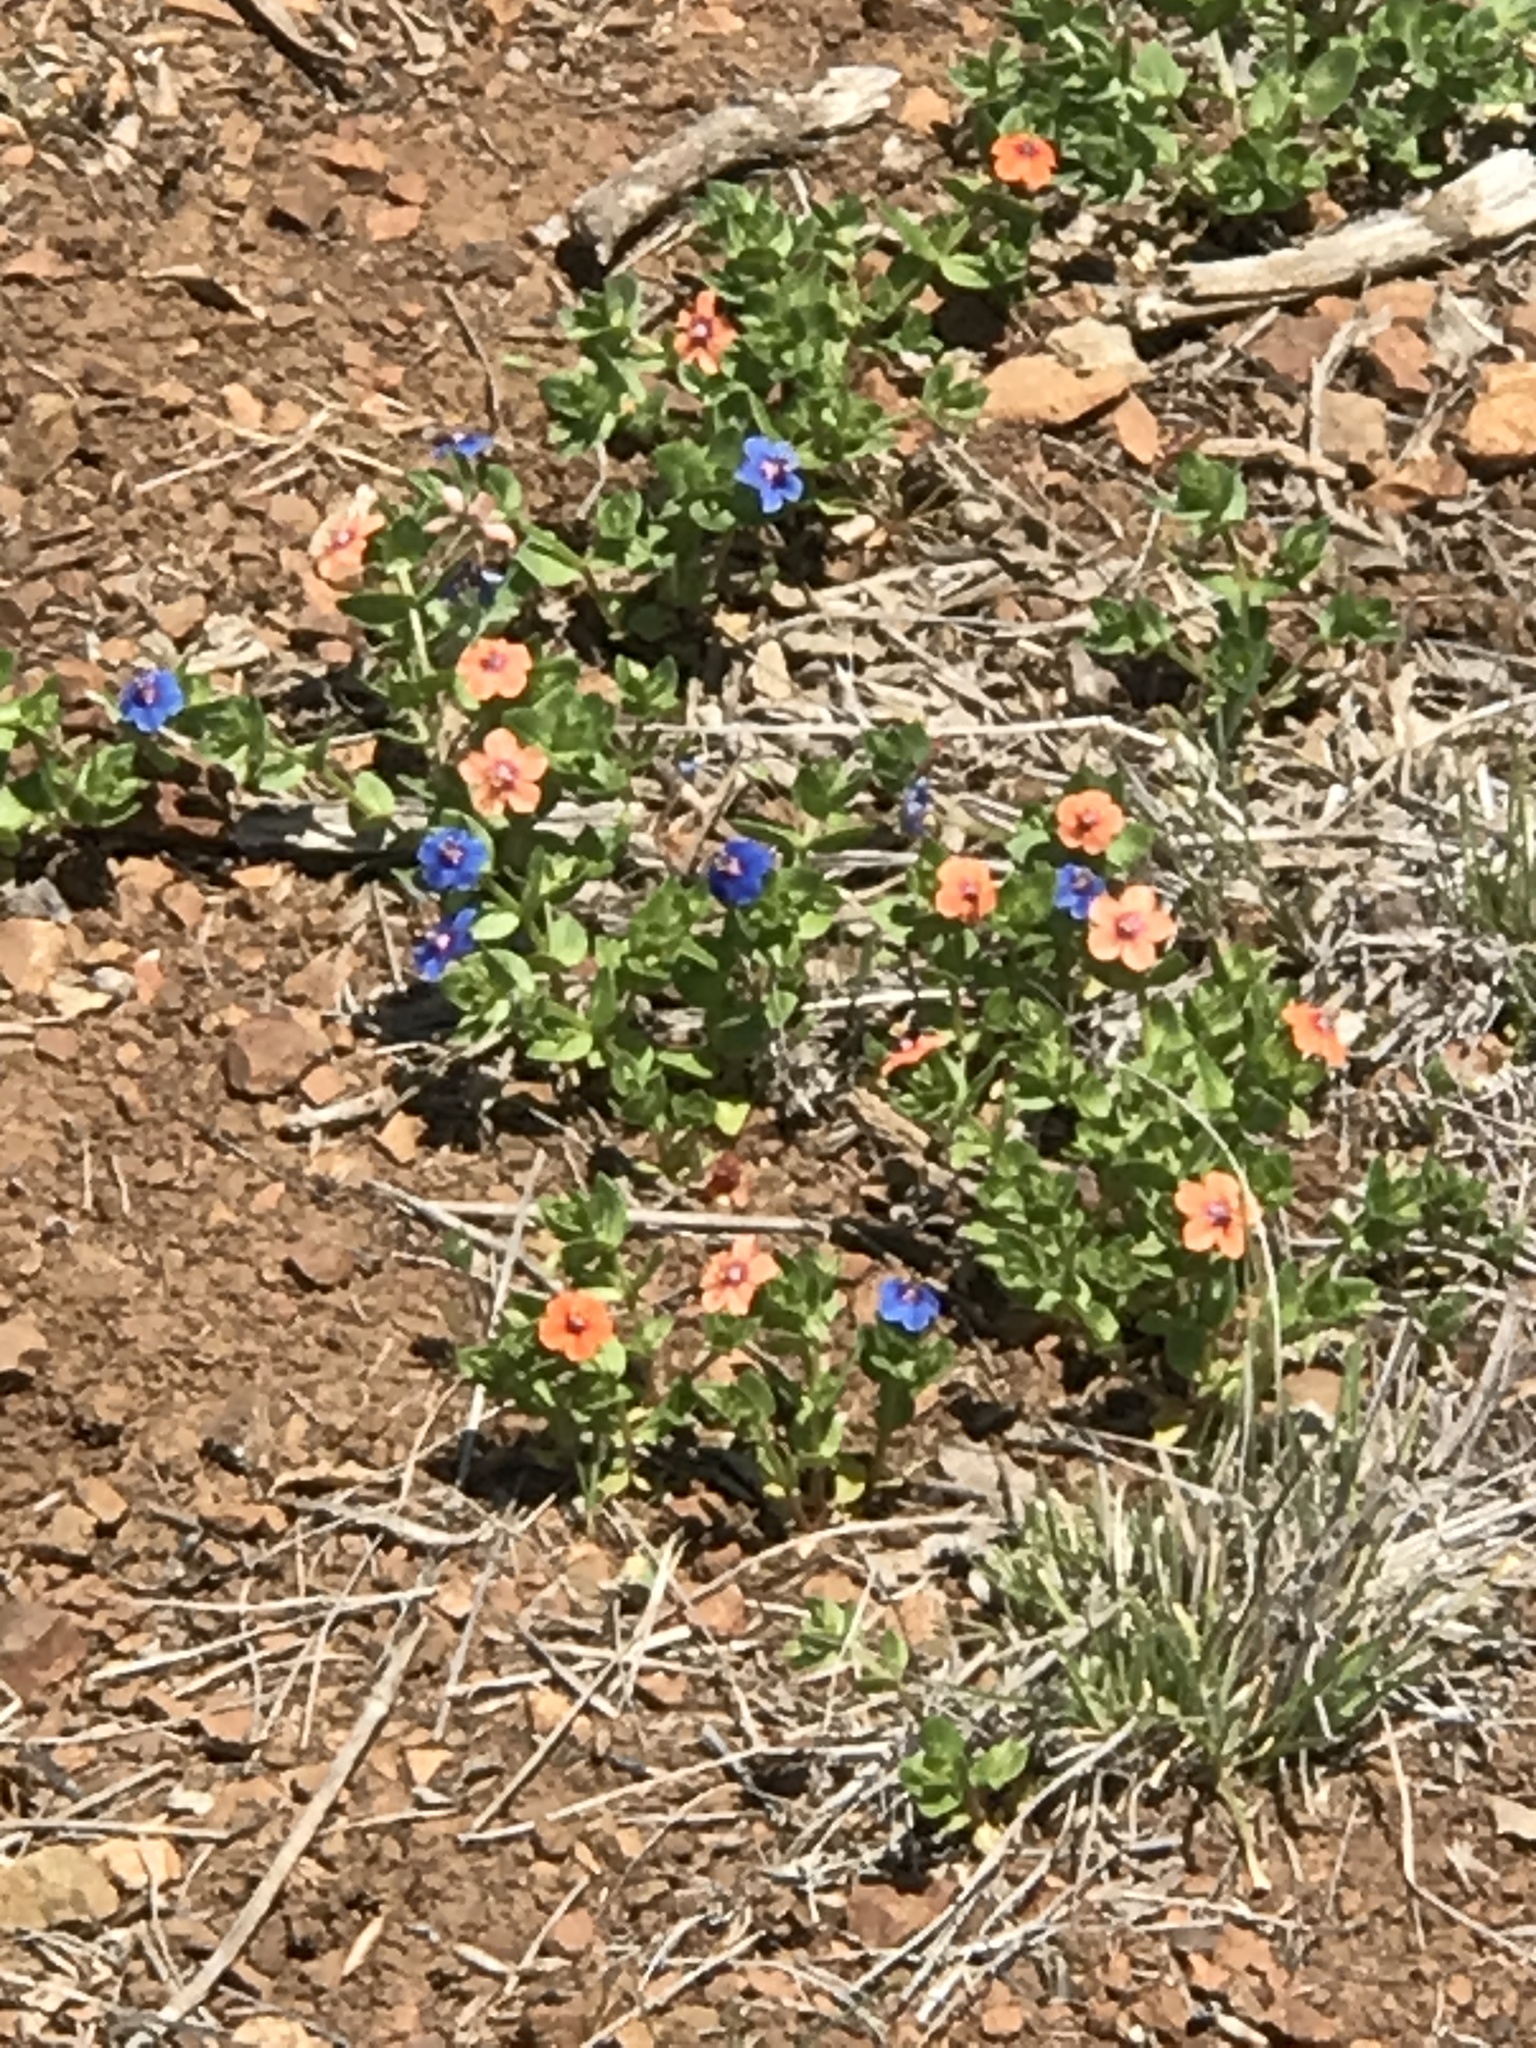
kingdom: Plantae
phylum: Tracheophyta
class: Magnoliopsida
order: Ericales
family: Primulaceae
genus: Lysimachia
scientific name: Lysimachia arvensis
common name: Scarlet pimpernel
